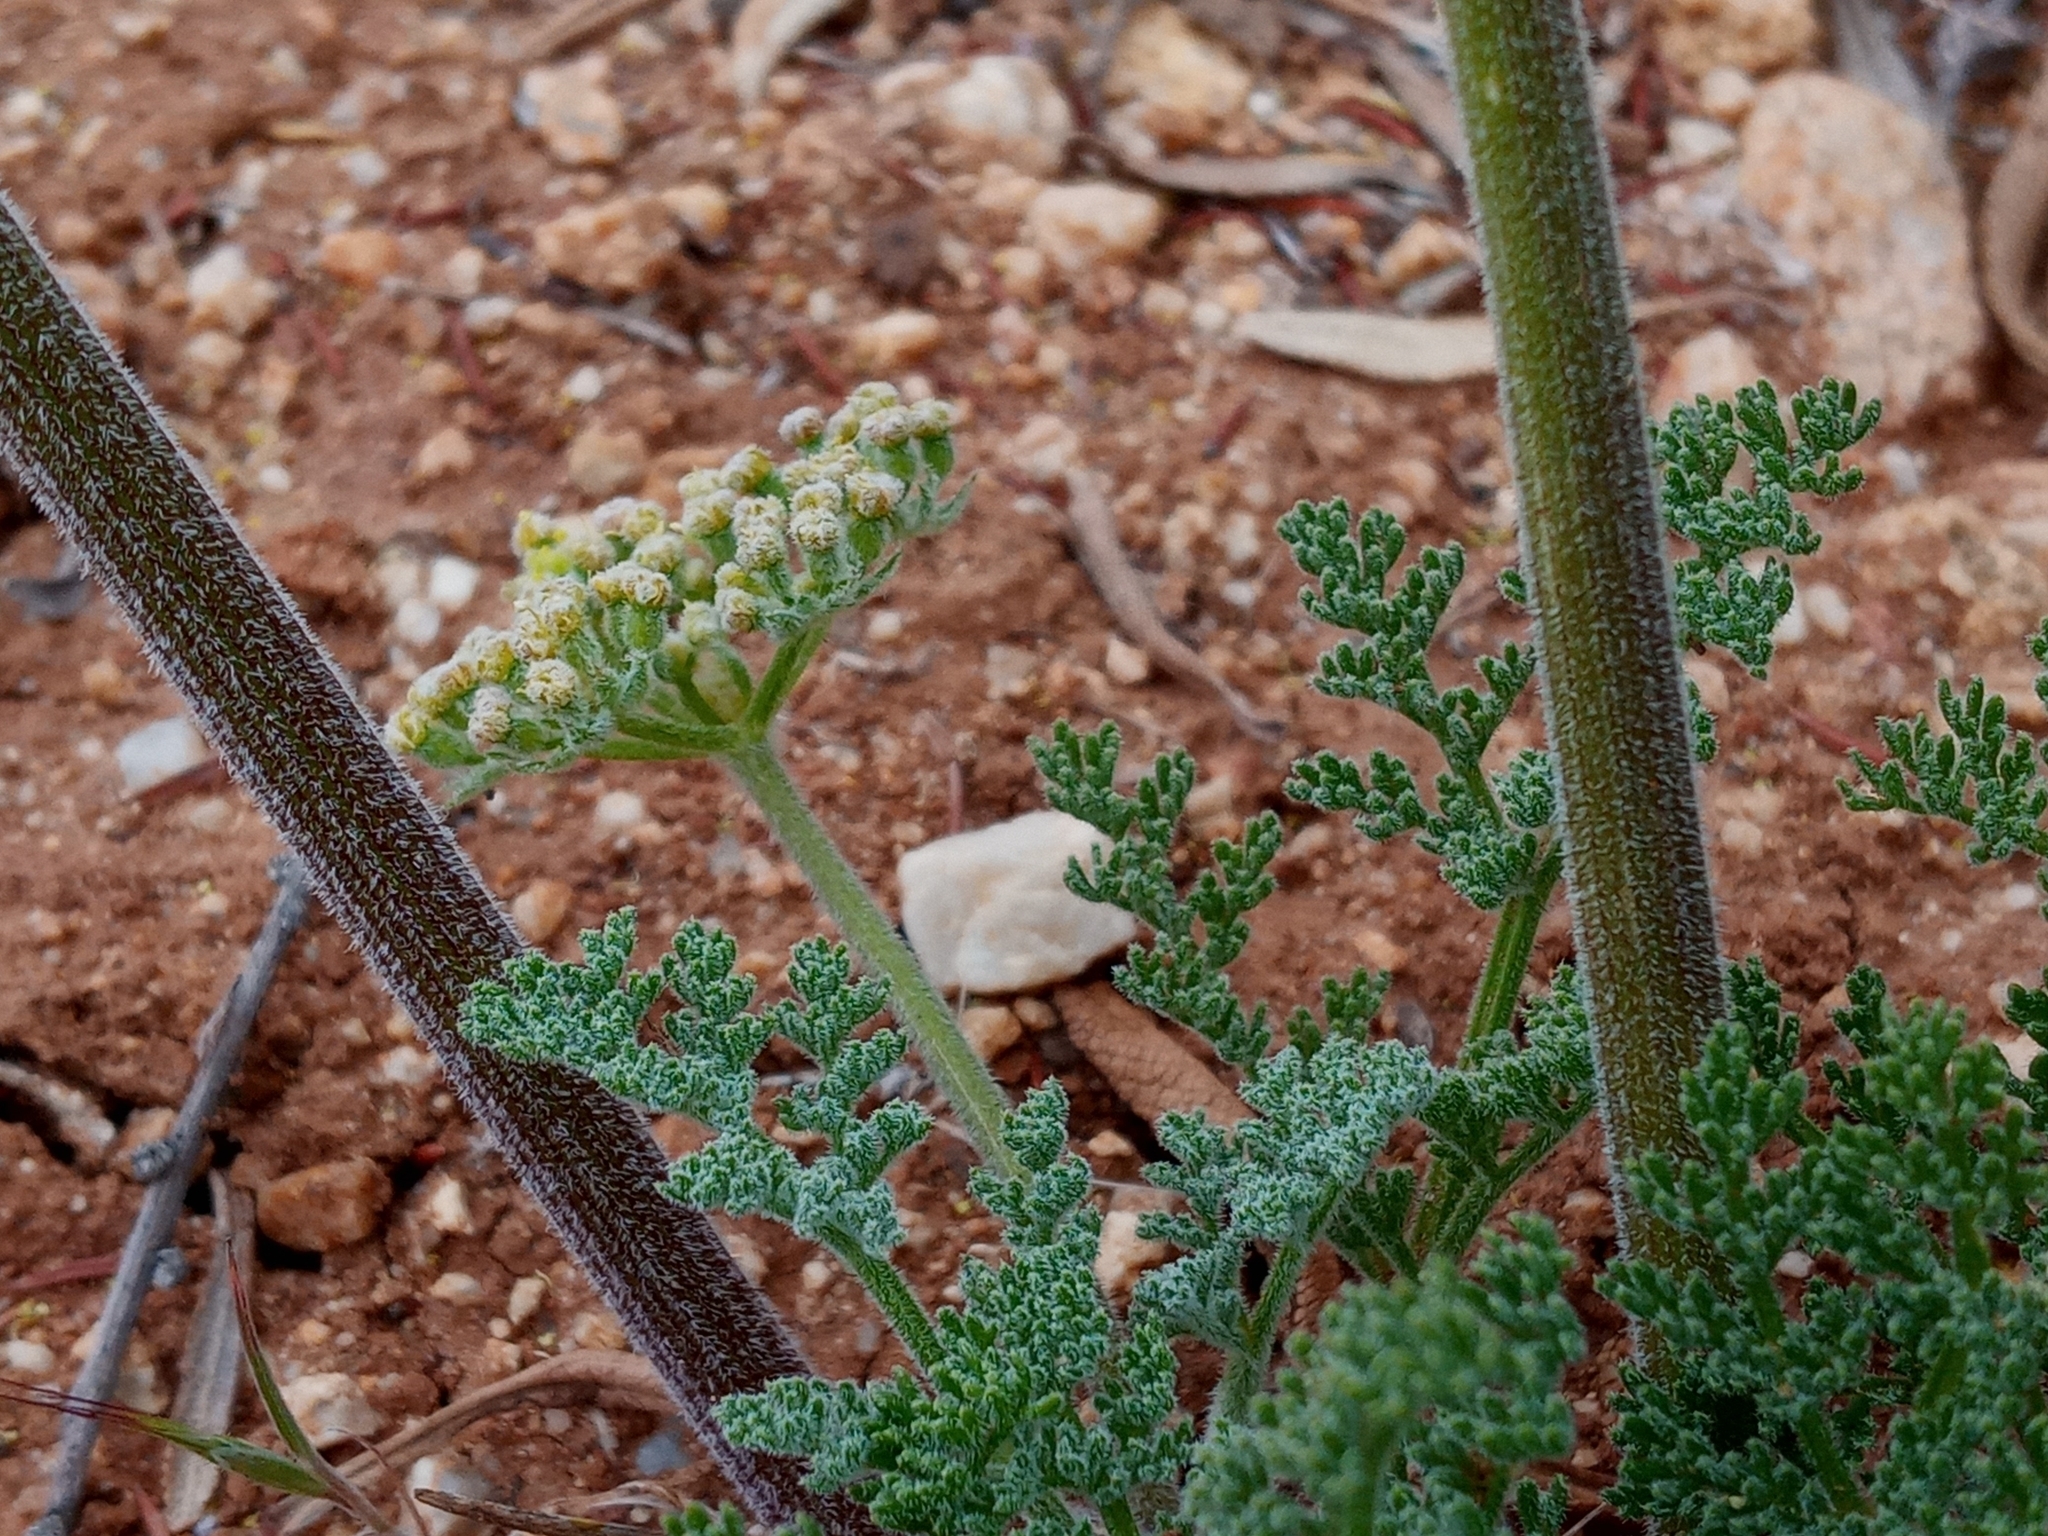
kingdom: Plantae
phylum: Tracheophyta
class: Magnoliopsida
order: Apiales
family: Apiaceae
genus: Lomatium
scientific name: Lomatium dasycarpum
